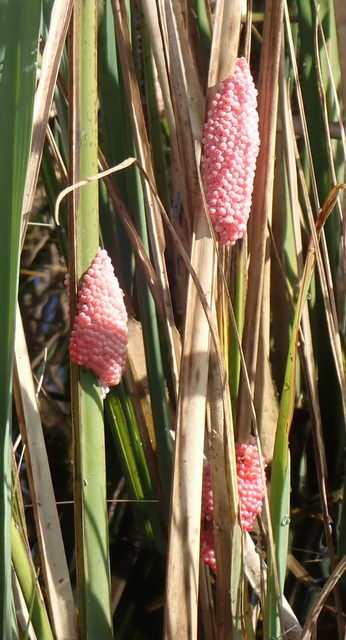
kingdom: Animalia
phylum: Mollusca
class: Gastropoda
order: Architaenioglossa
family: Ampullariidae
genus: Pomacea
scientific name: Pomacea maculata
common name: Giant applesnail
